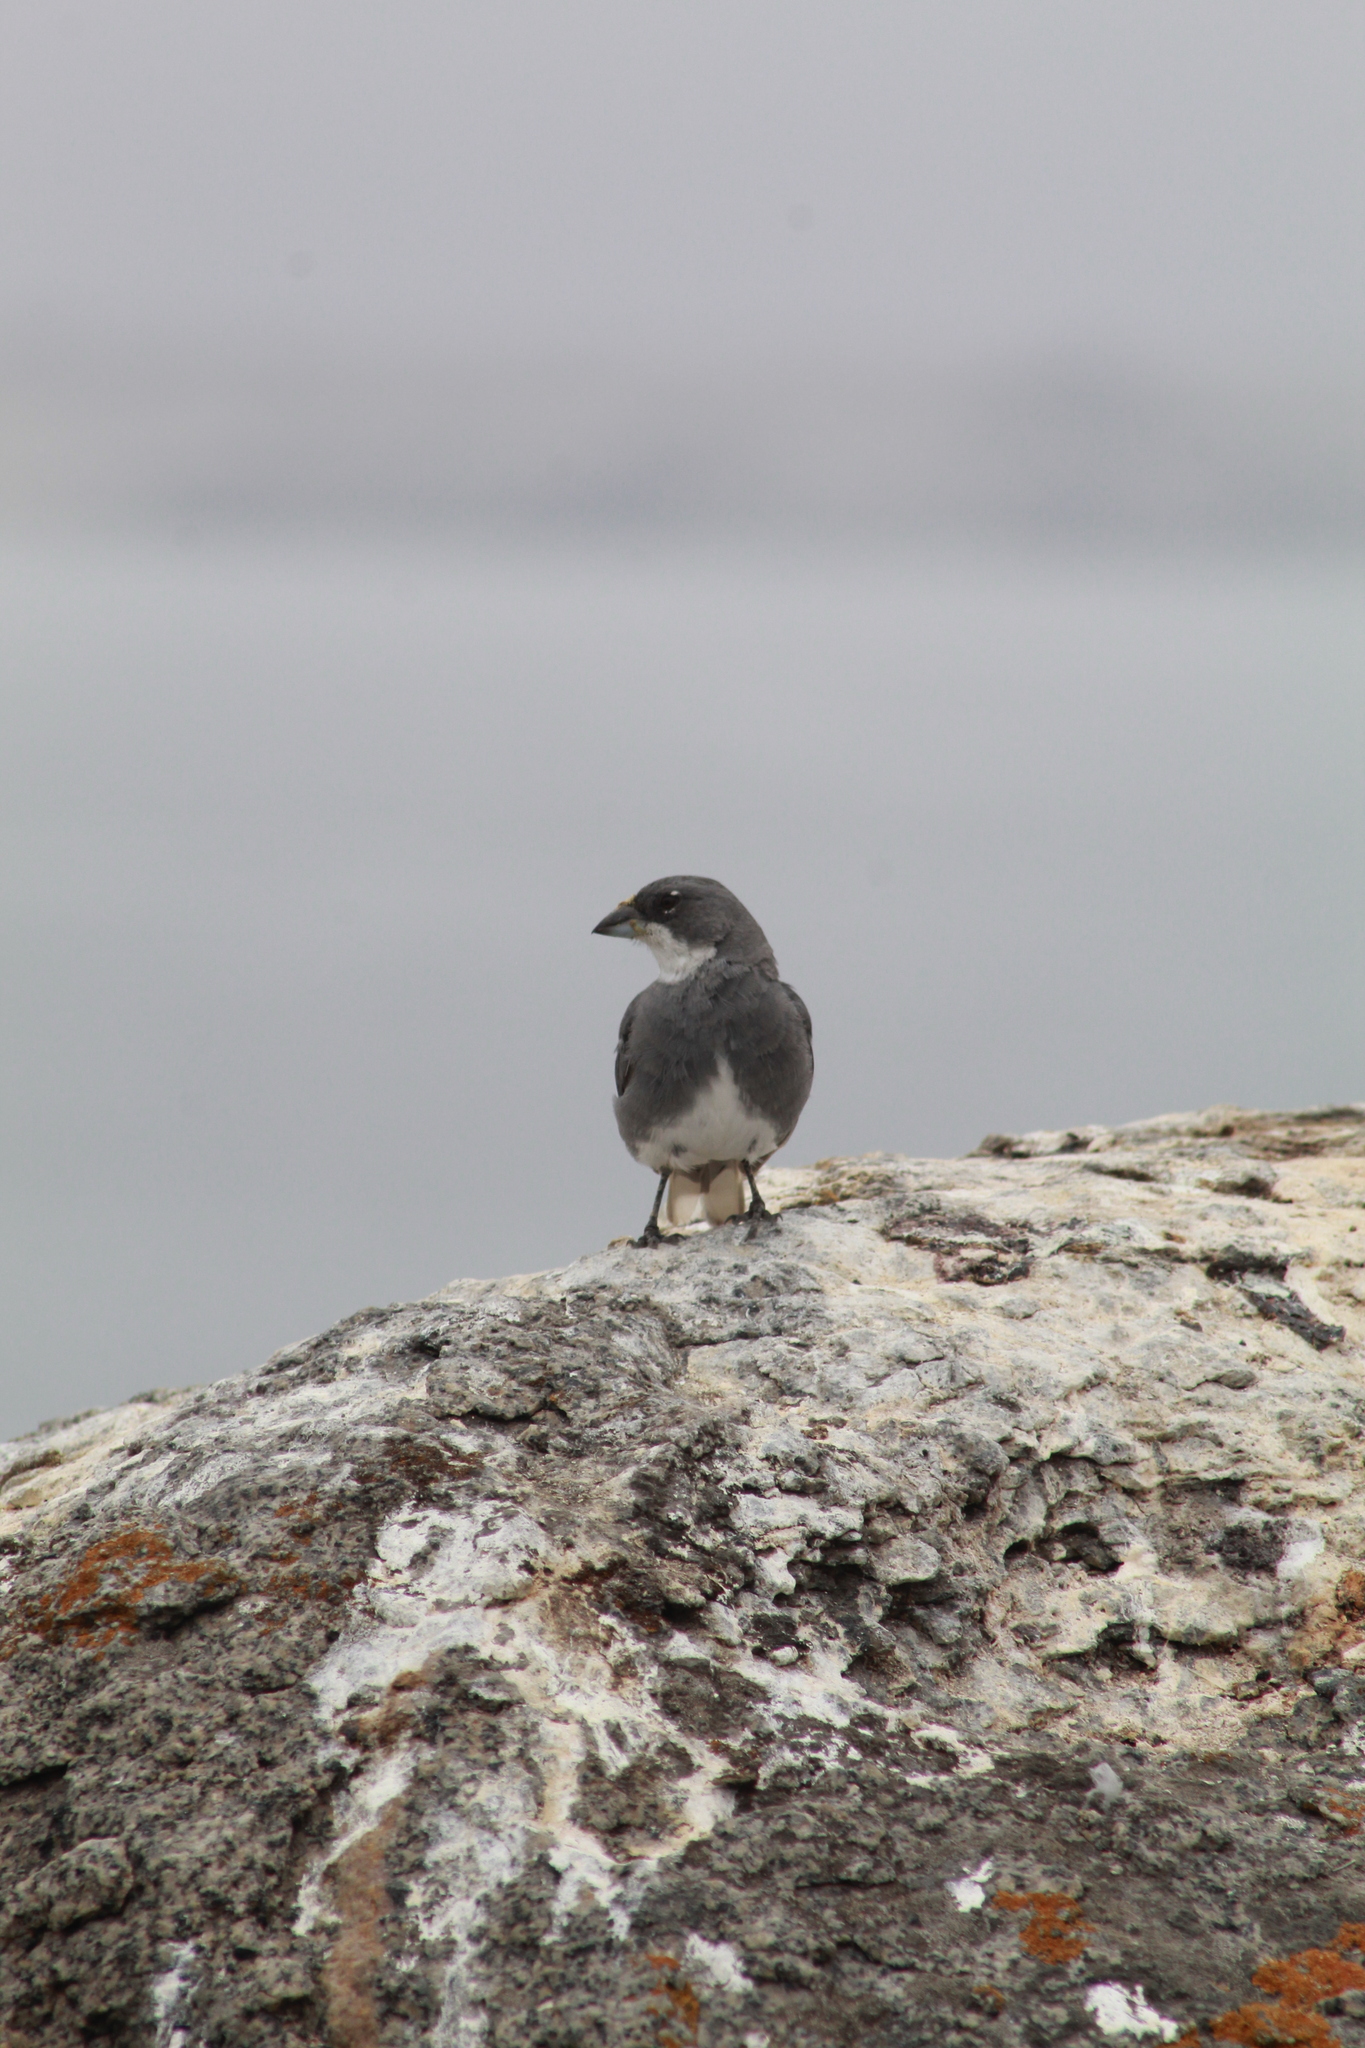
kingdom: Animalia
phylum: Chordata
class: Aves
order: Passeriformes
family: Thraupidae
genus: Diuca
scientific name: Diuca diuca
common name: Common diuca finch
